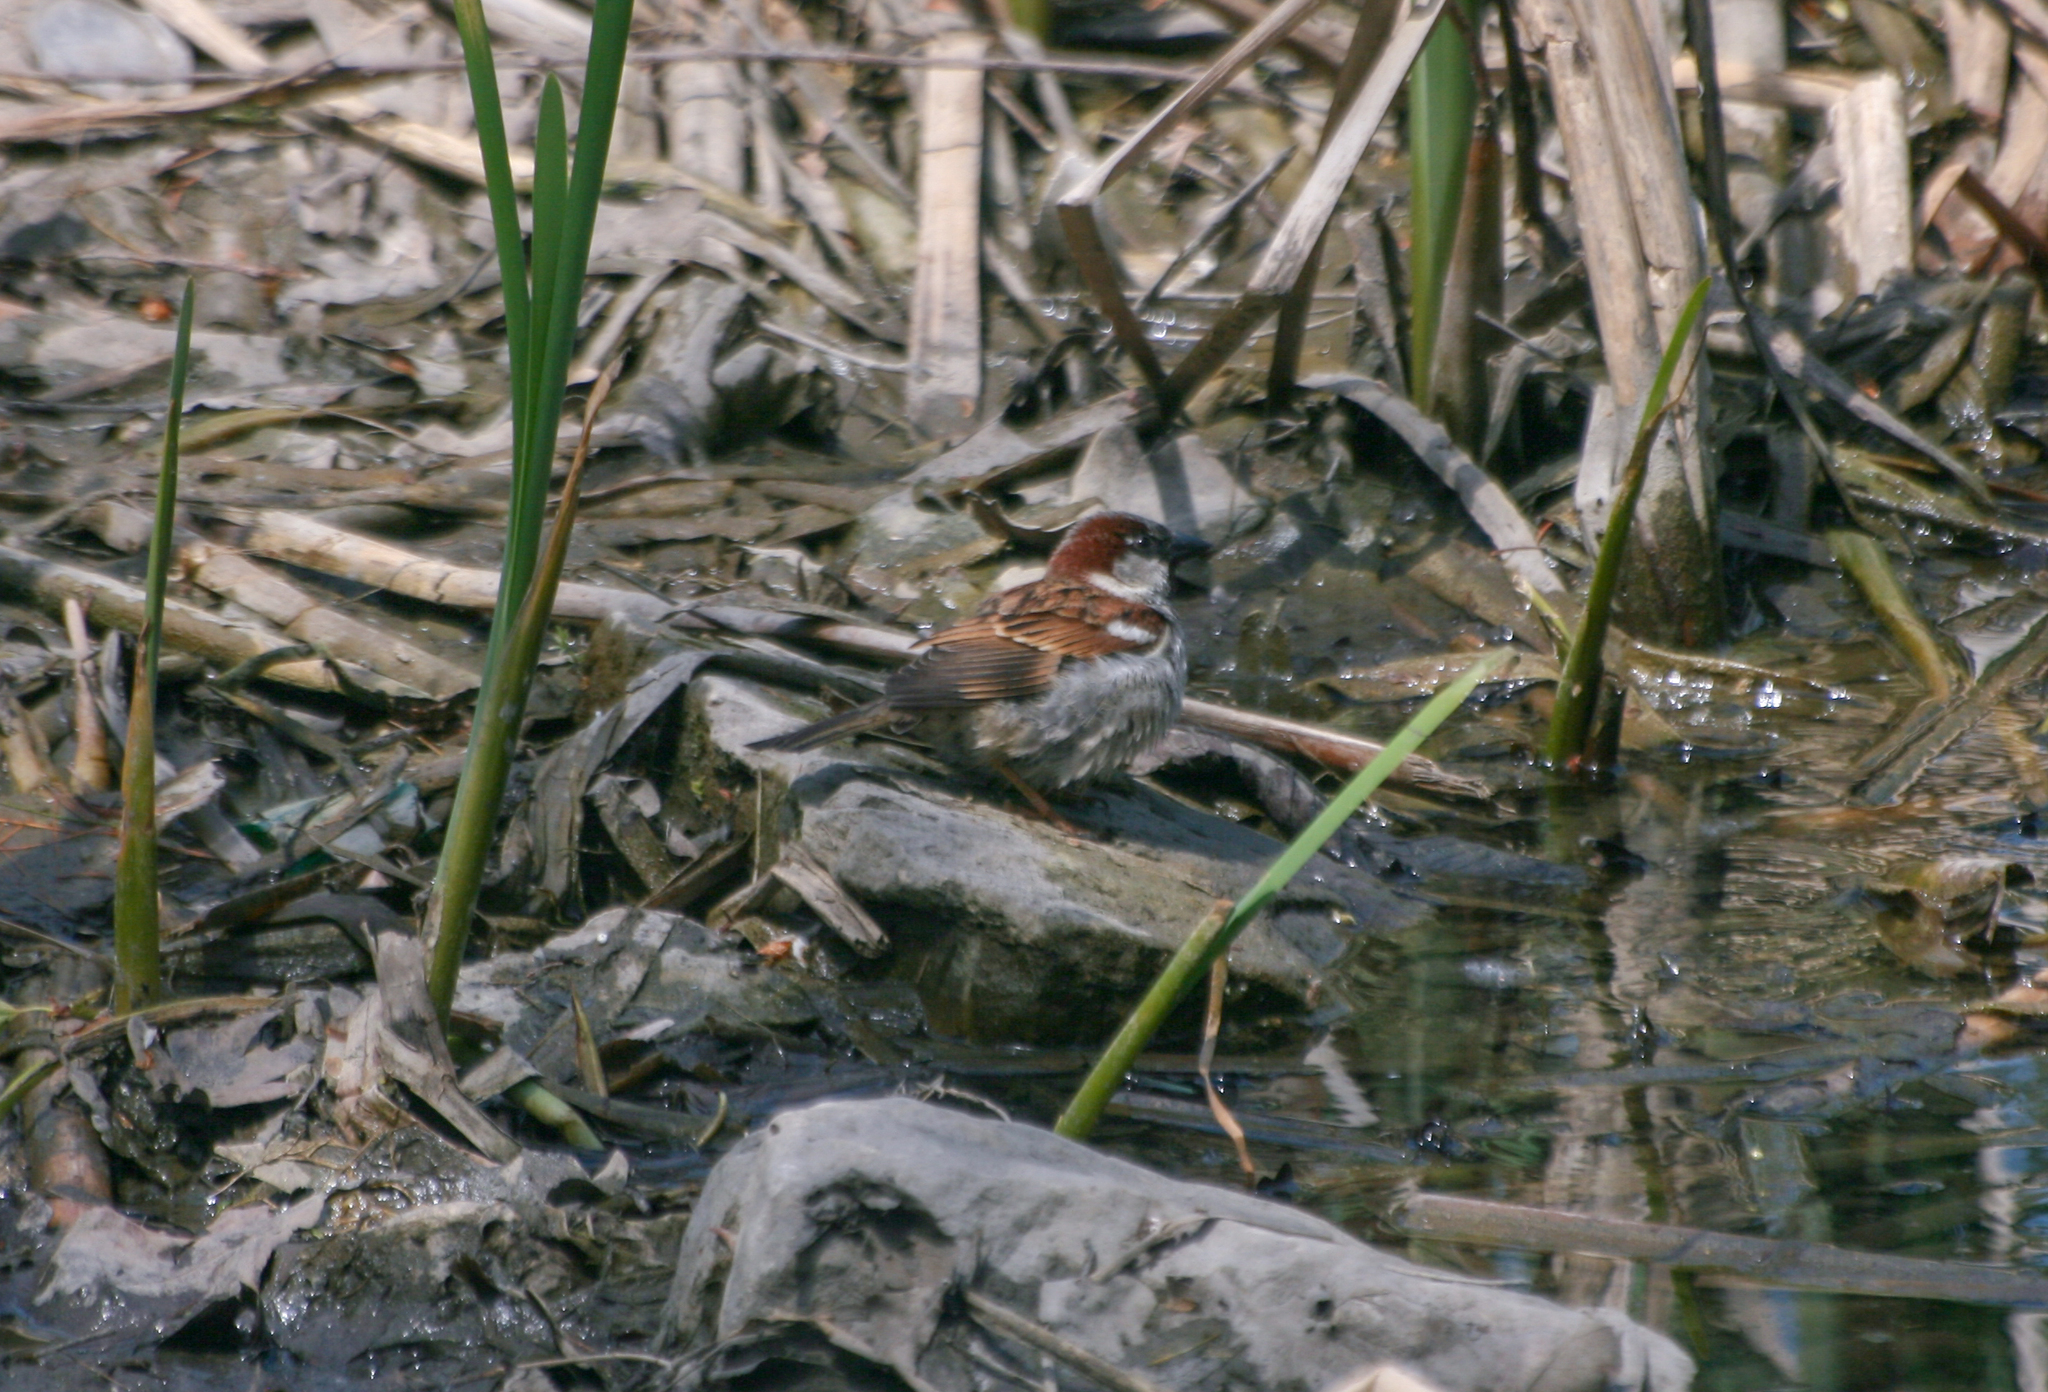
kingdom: Animalia
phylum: Chordata
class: Aves
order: Passeriformes
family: Passeridae
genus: Passer
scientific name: Passer domesticus
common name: House sparrow
